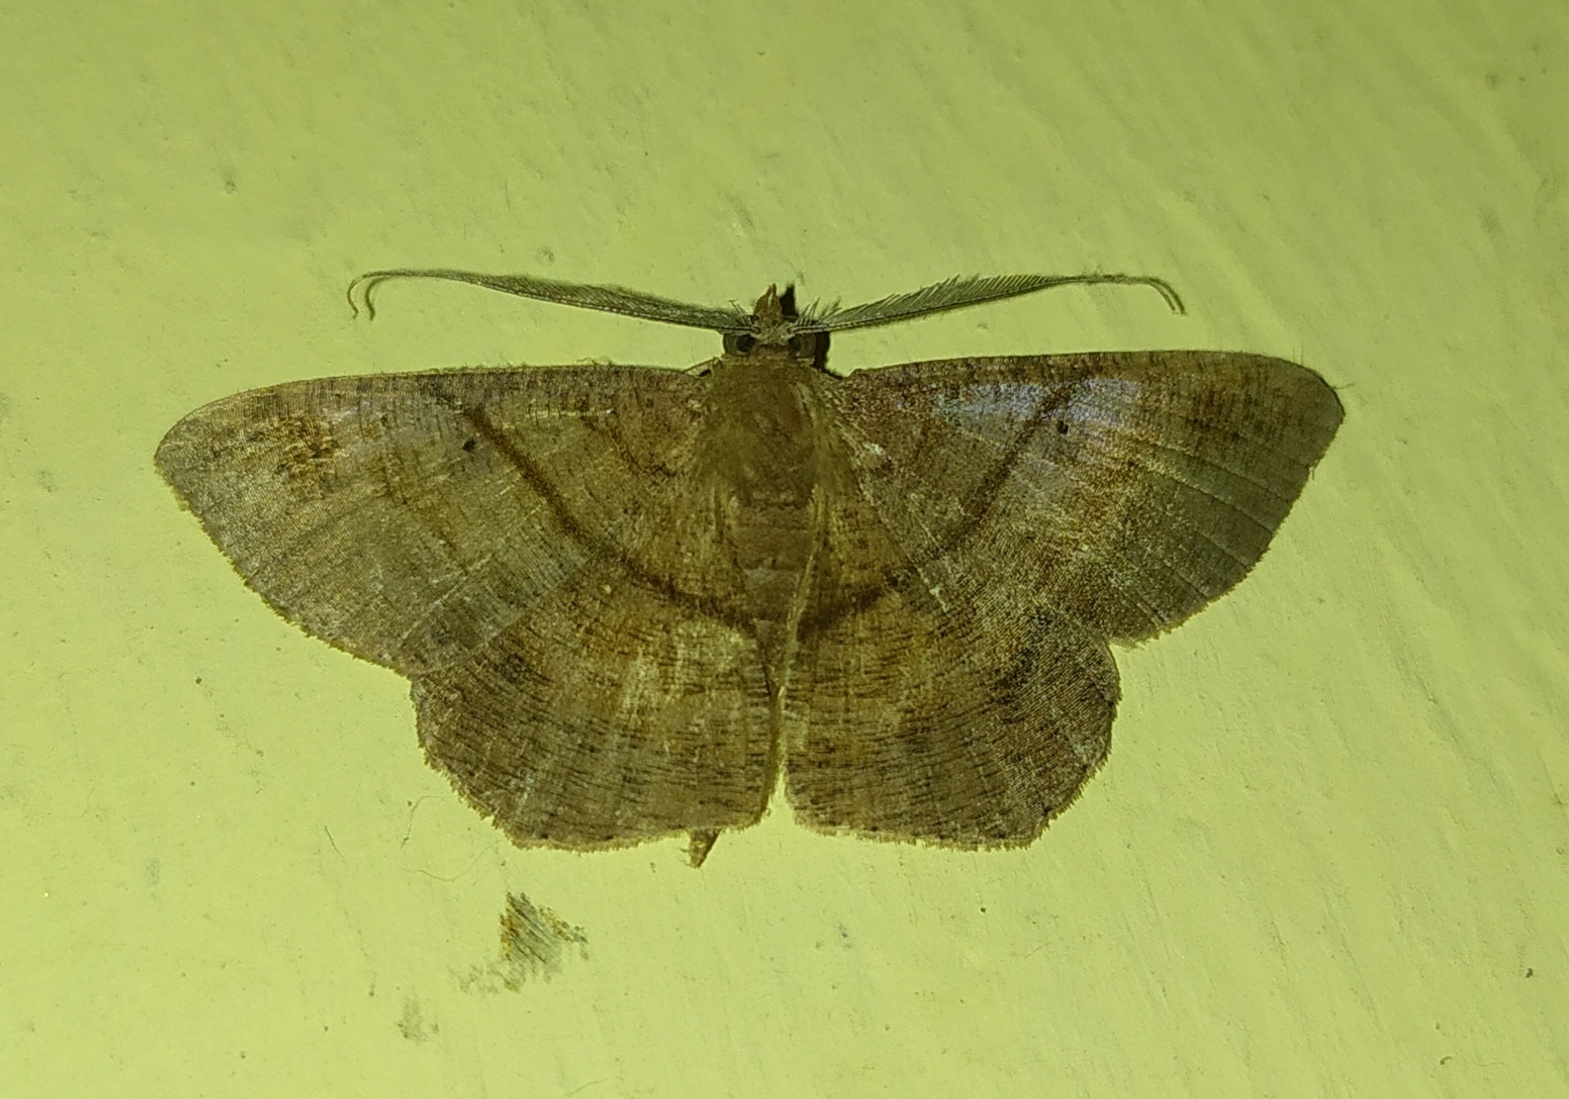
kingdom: Animalia
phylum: Arthropoda
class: Insecta
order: Lepidoptera
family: Geometridae
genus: Petelia
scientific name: Petelia medardaria
